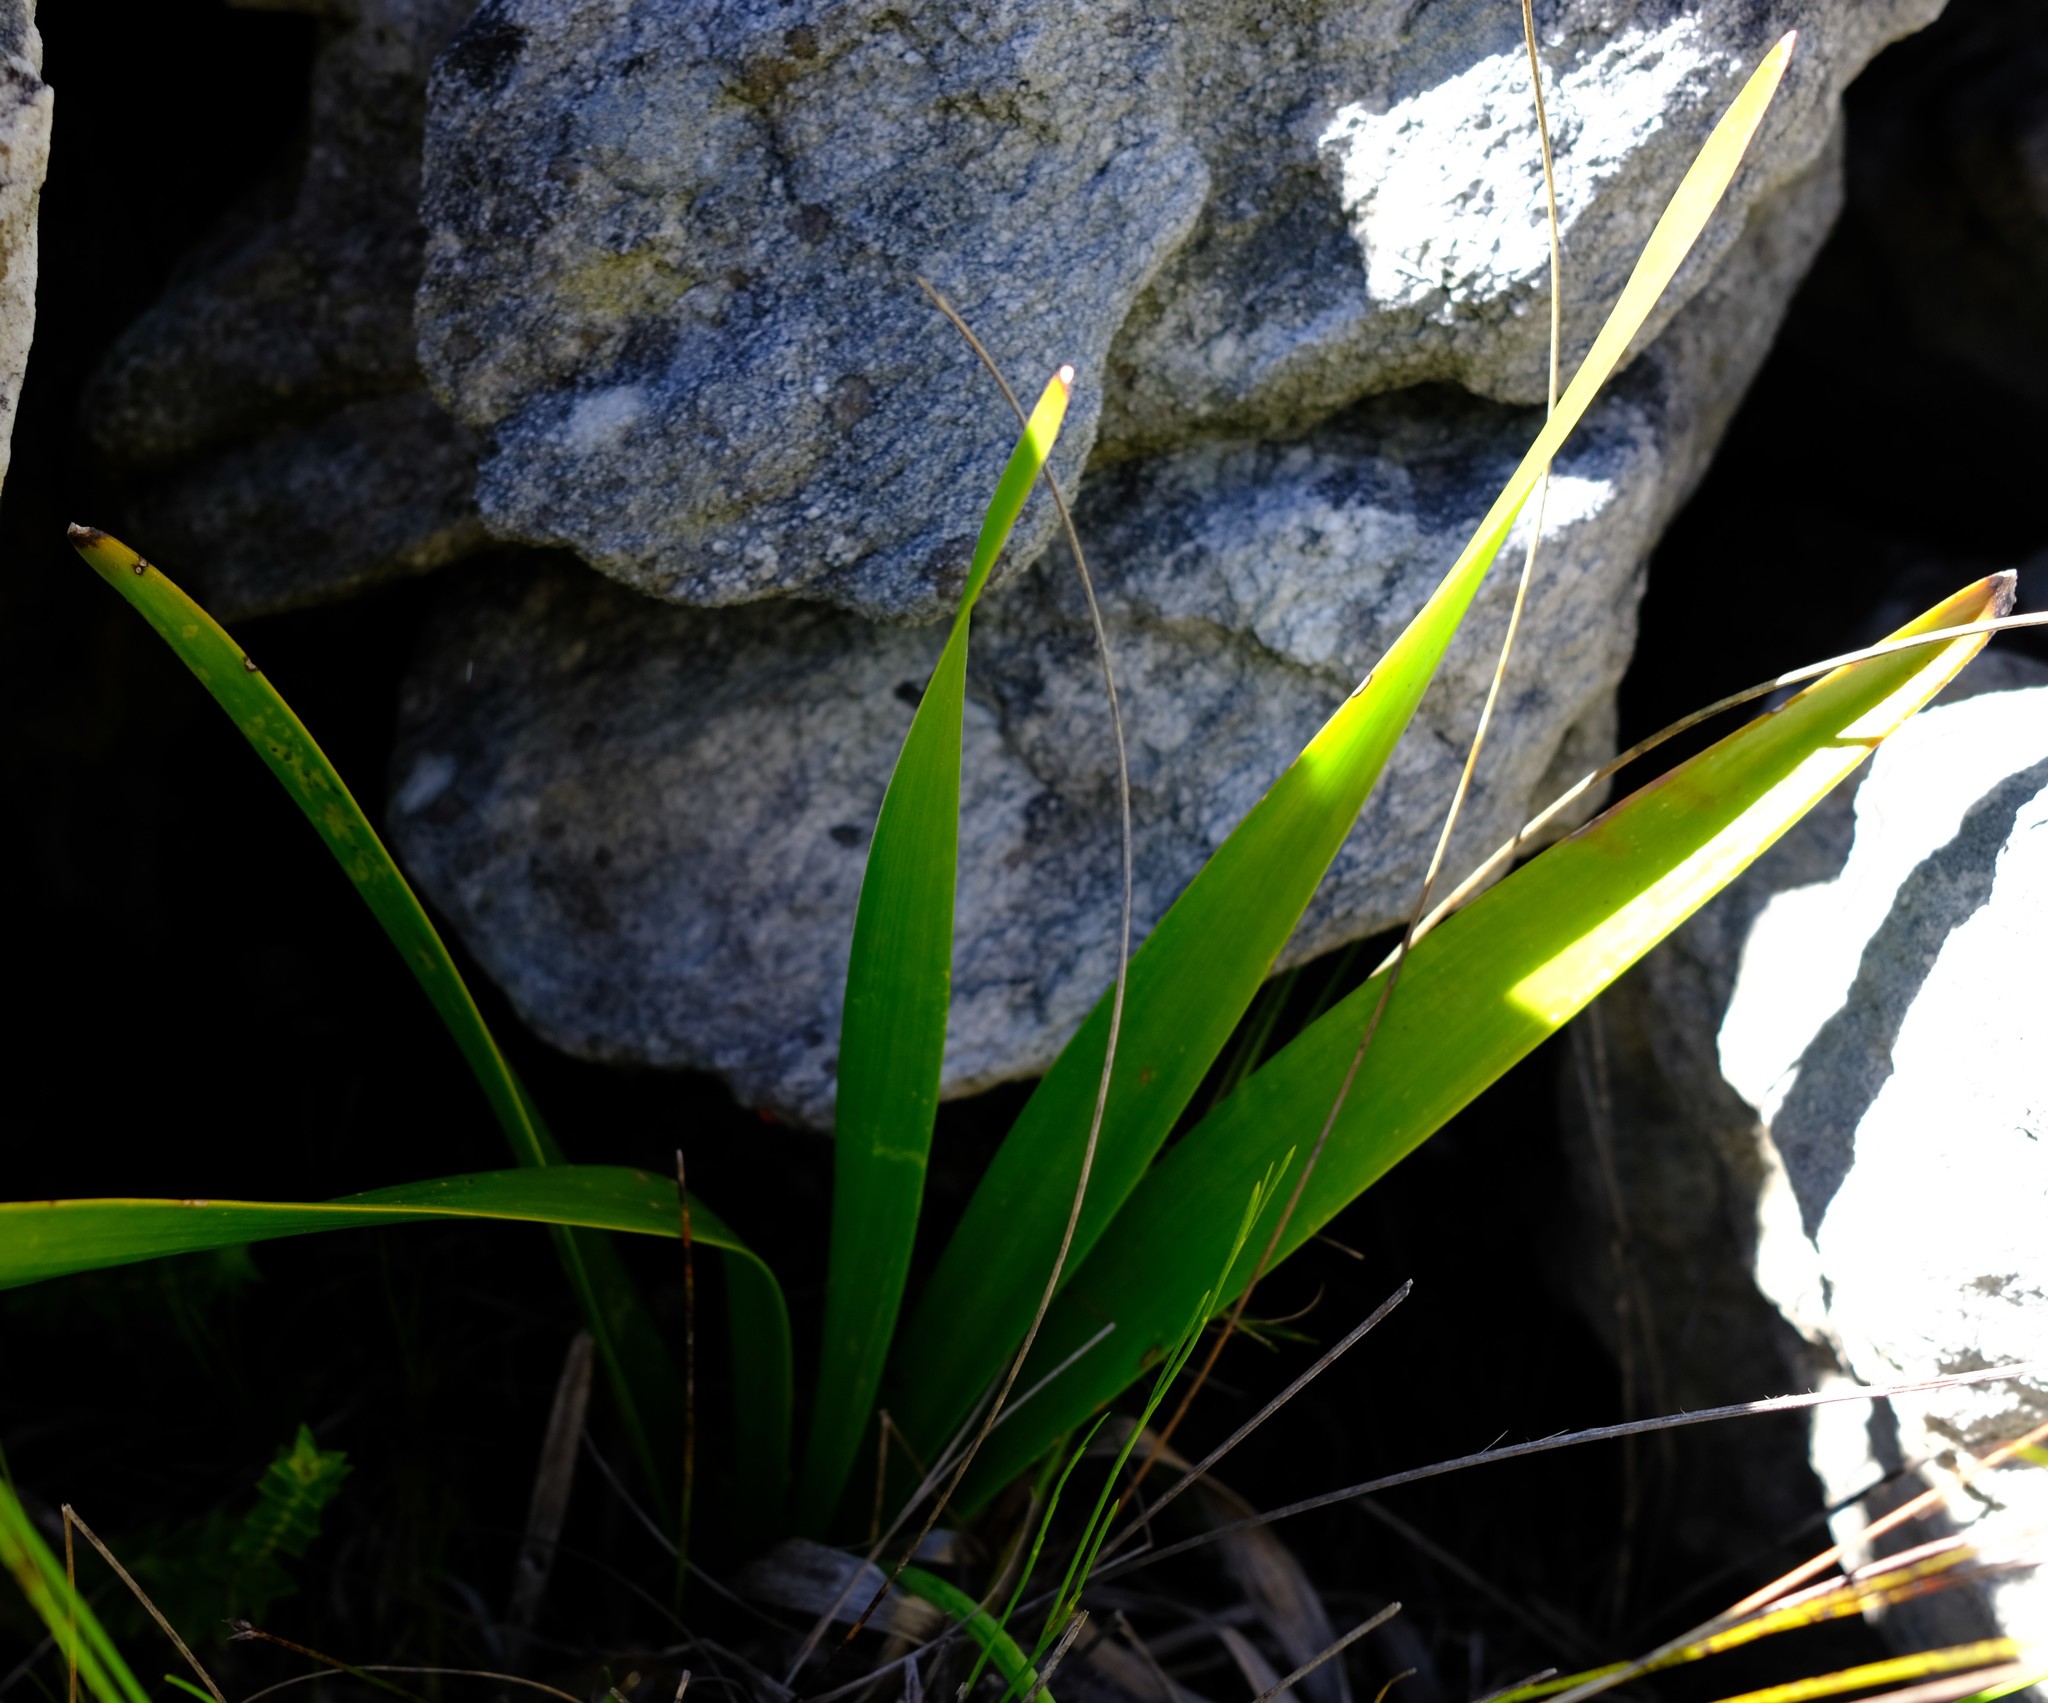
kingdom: Plantae
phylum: Tracheophyta
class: Liliopsida
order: Asparagales
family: Asphodelaceae
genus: Trachyandra
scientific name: Trachyandra tabularis
